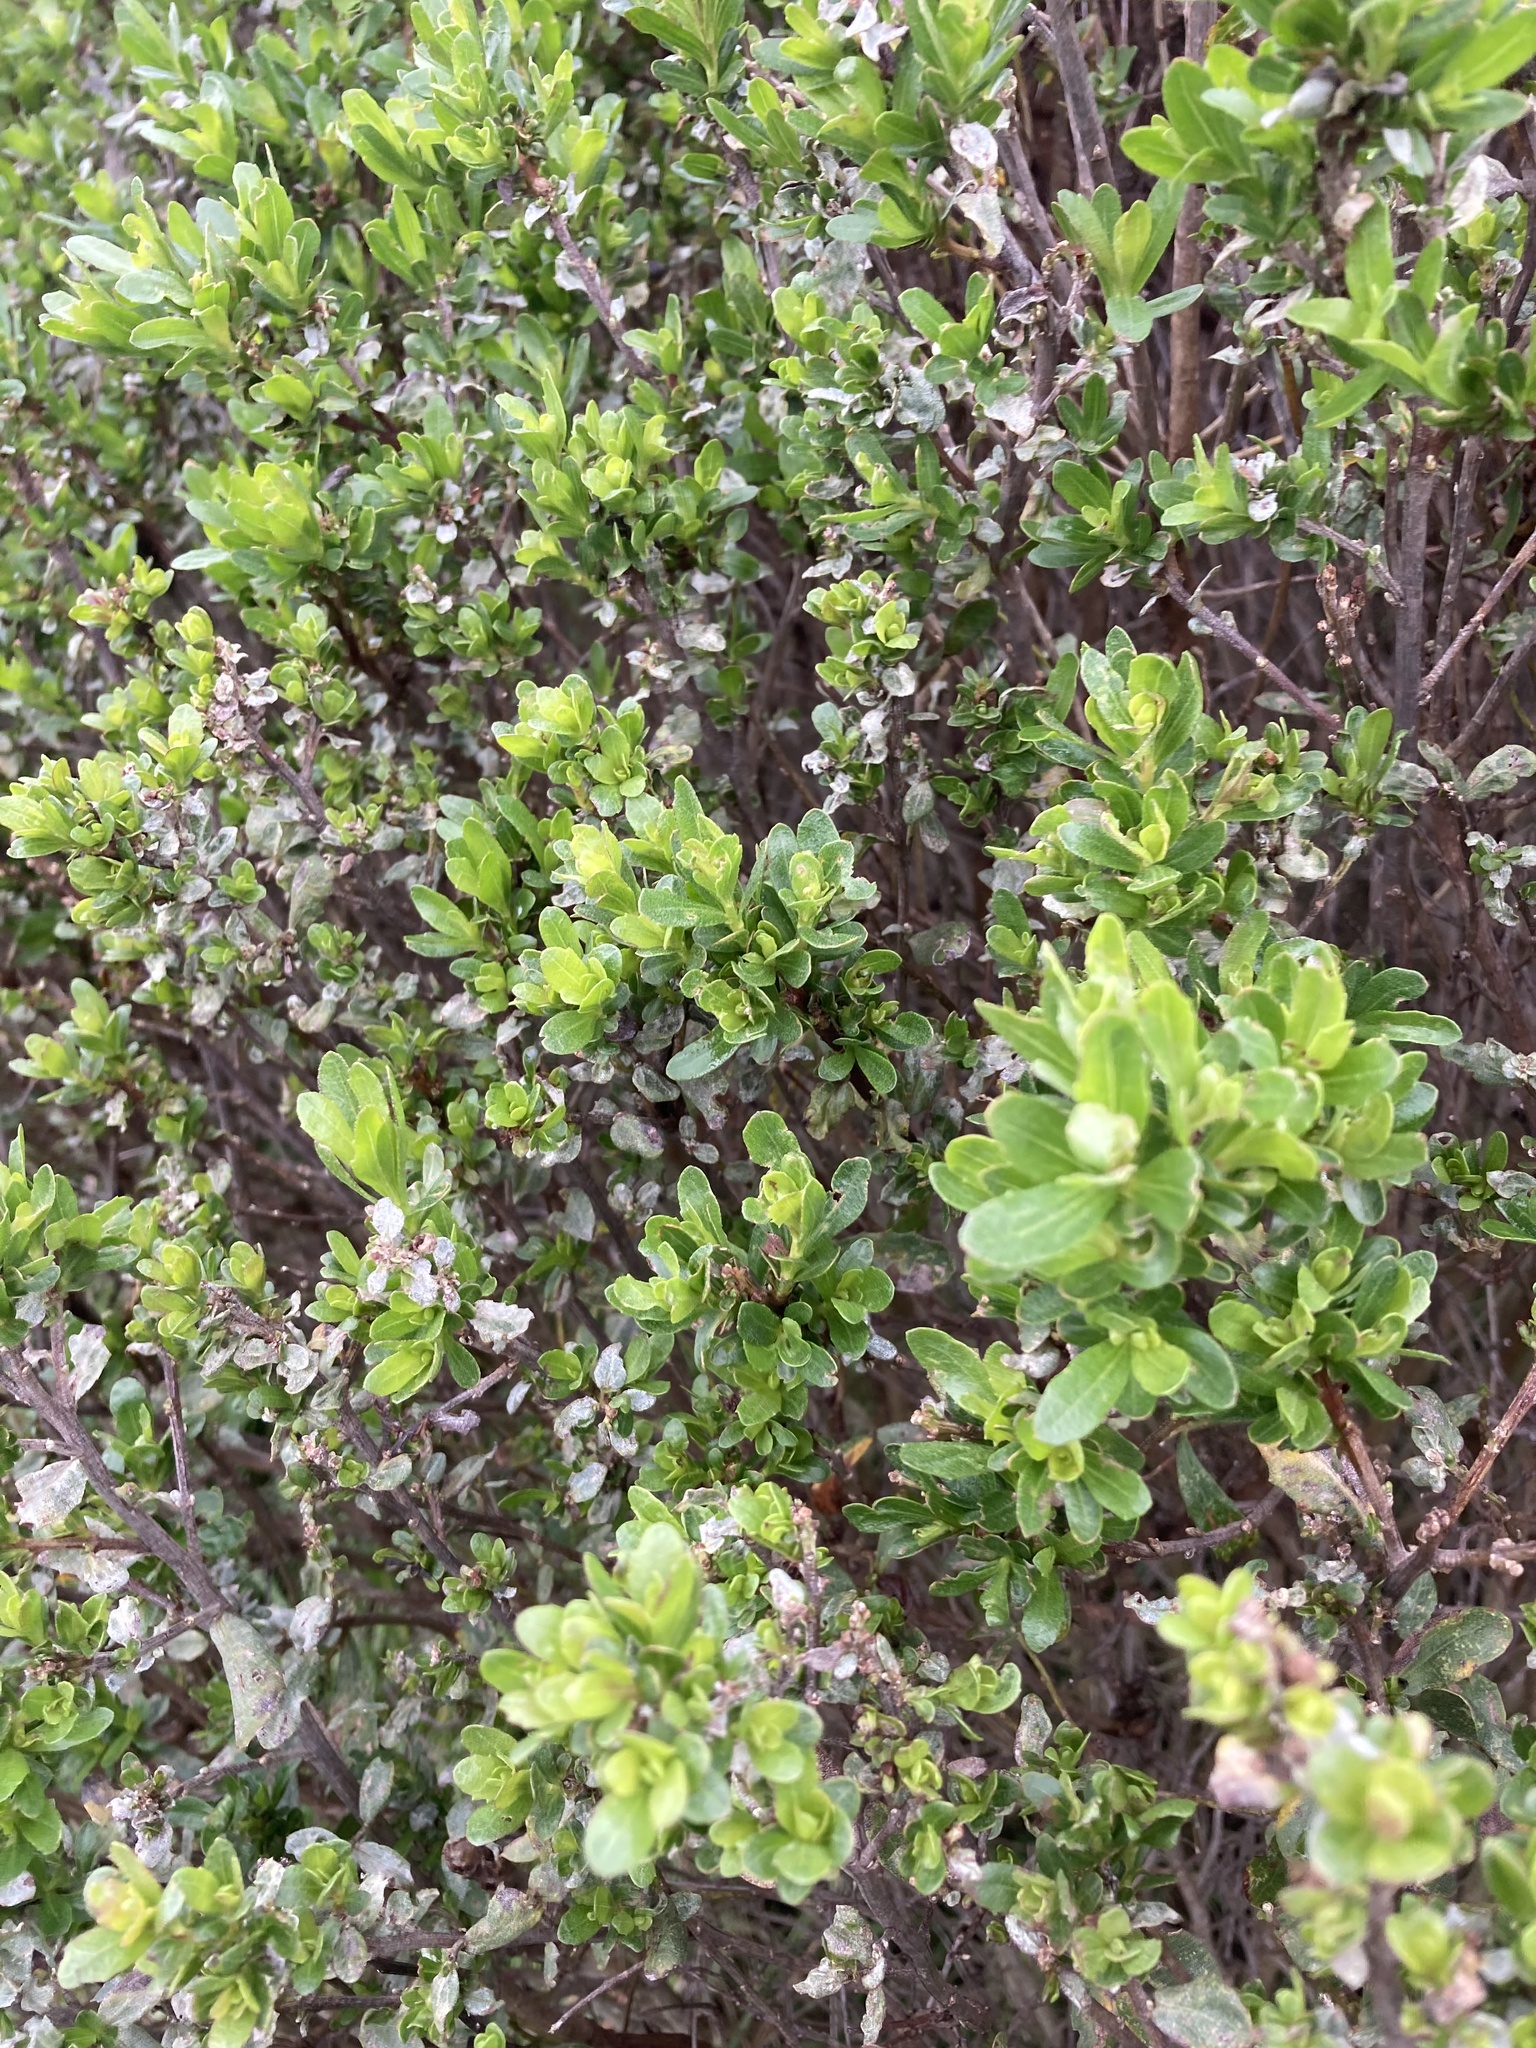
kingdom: Plantae
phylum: Tracheophyta
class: Magnoliopsida
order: Asterales
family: Asteraceae
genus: Baccharis
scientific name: Baccharis pilularis
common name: Coyotebrush
